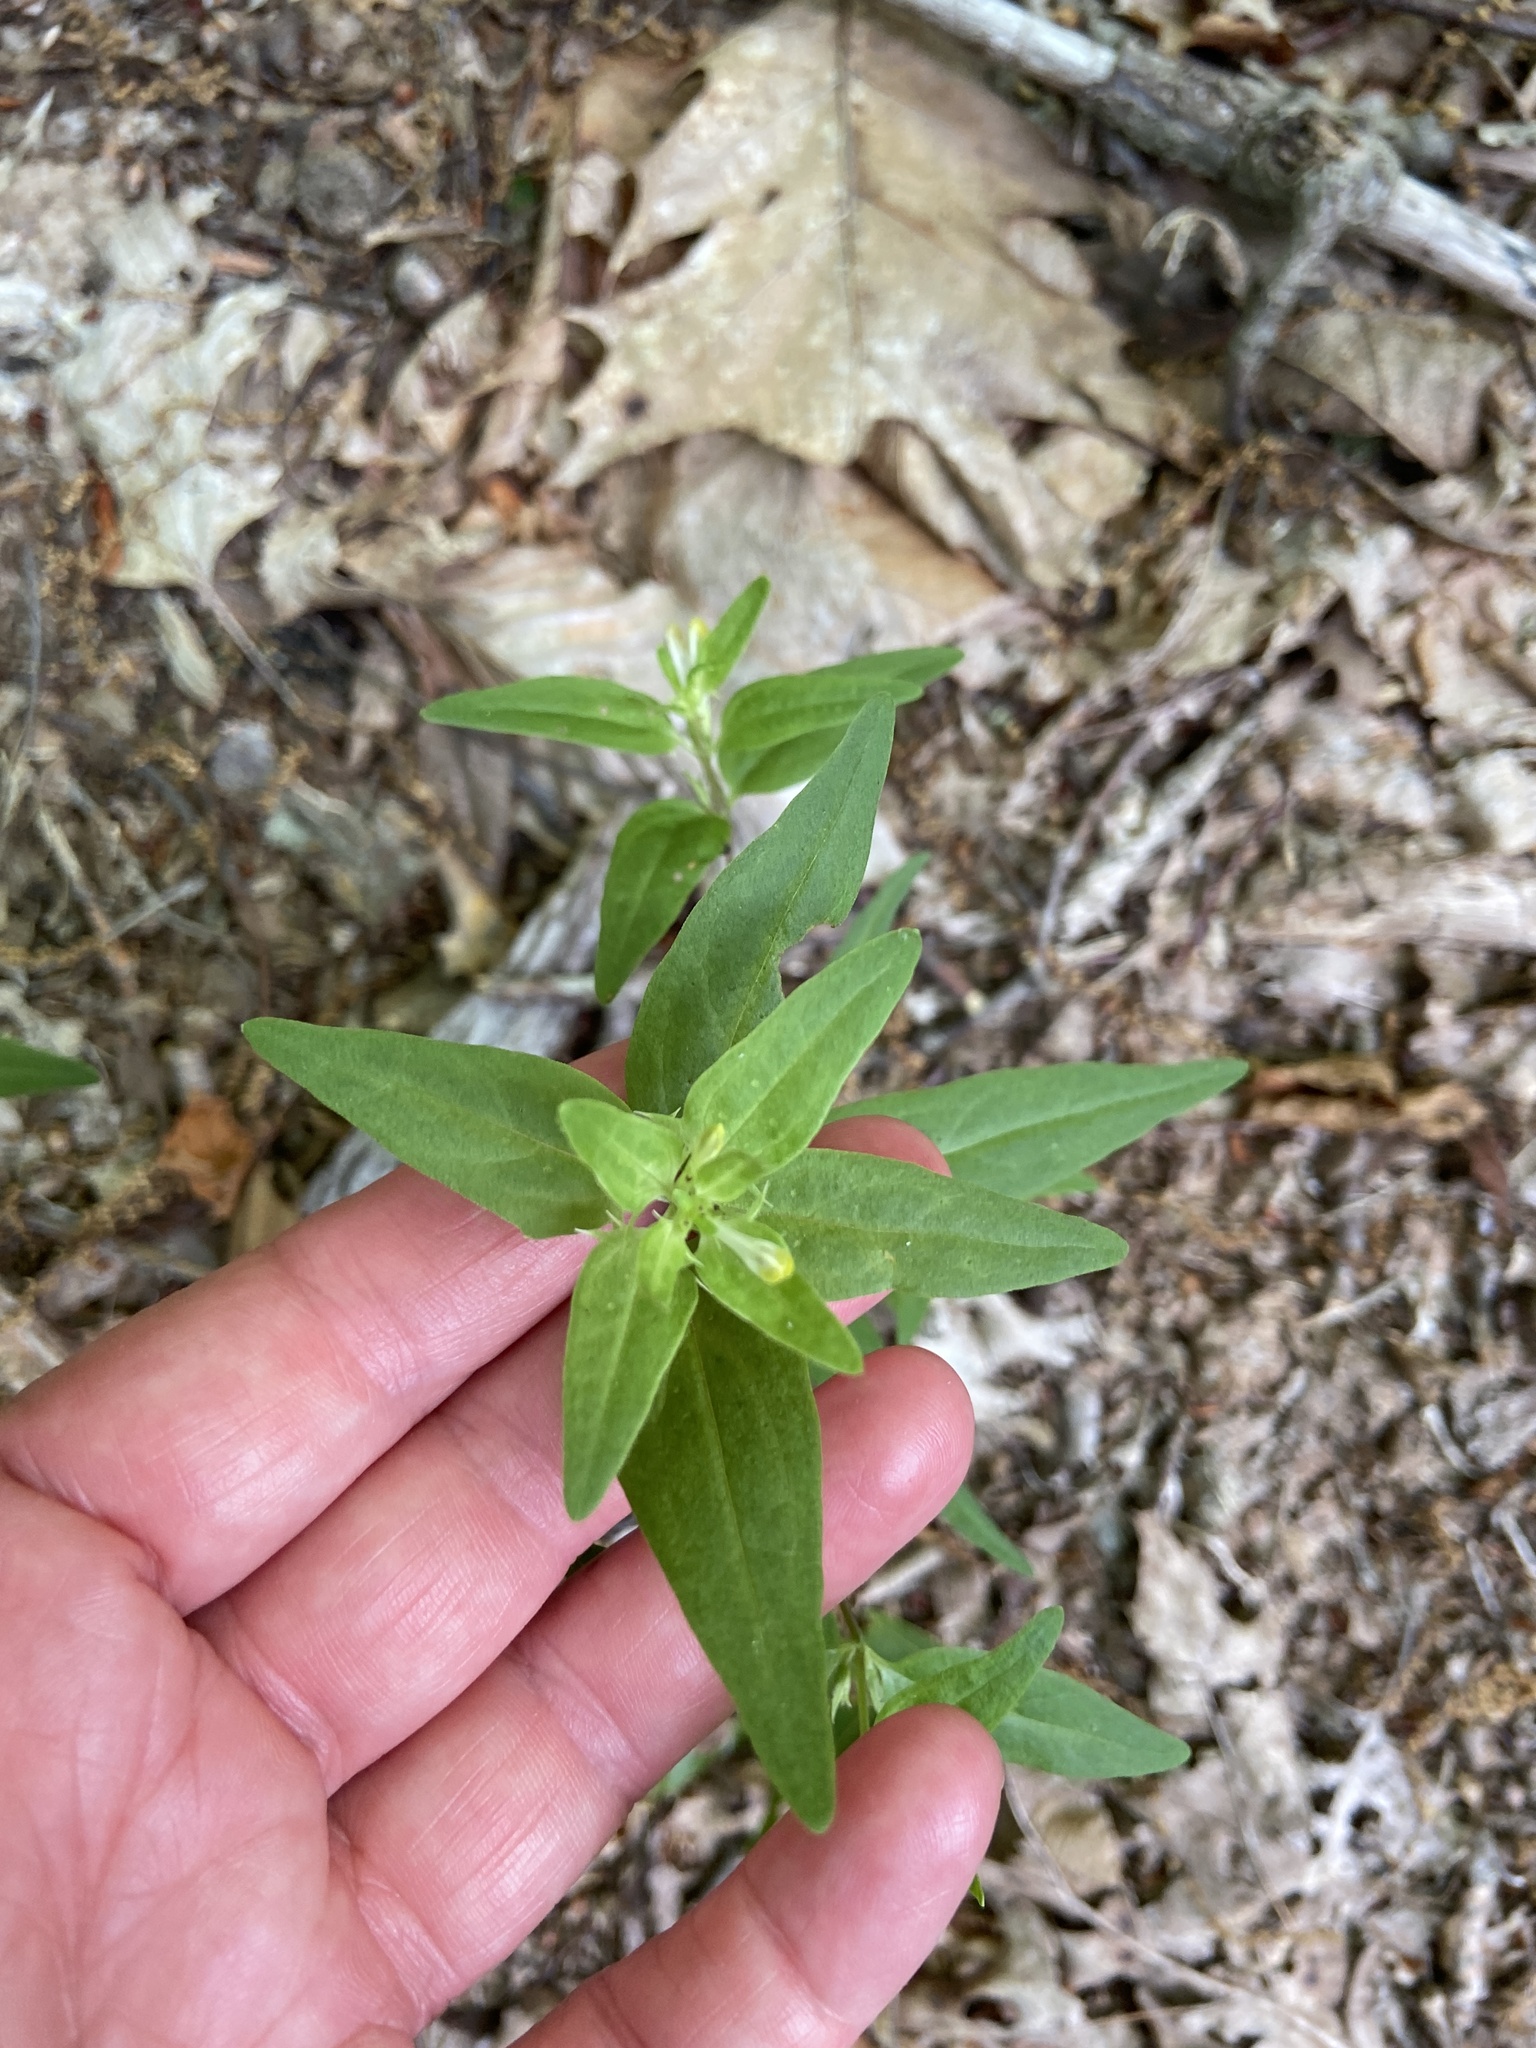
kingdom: Plantae
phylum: Tracheophyta
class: Magnoliopsida
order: Lamiales
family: Orobanchaceae
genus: Melampyrum
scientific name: Melampyrum lineare
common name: American cow-wheat
